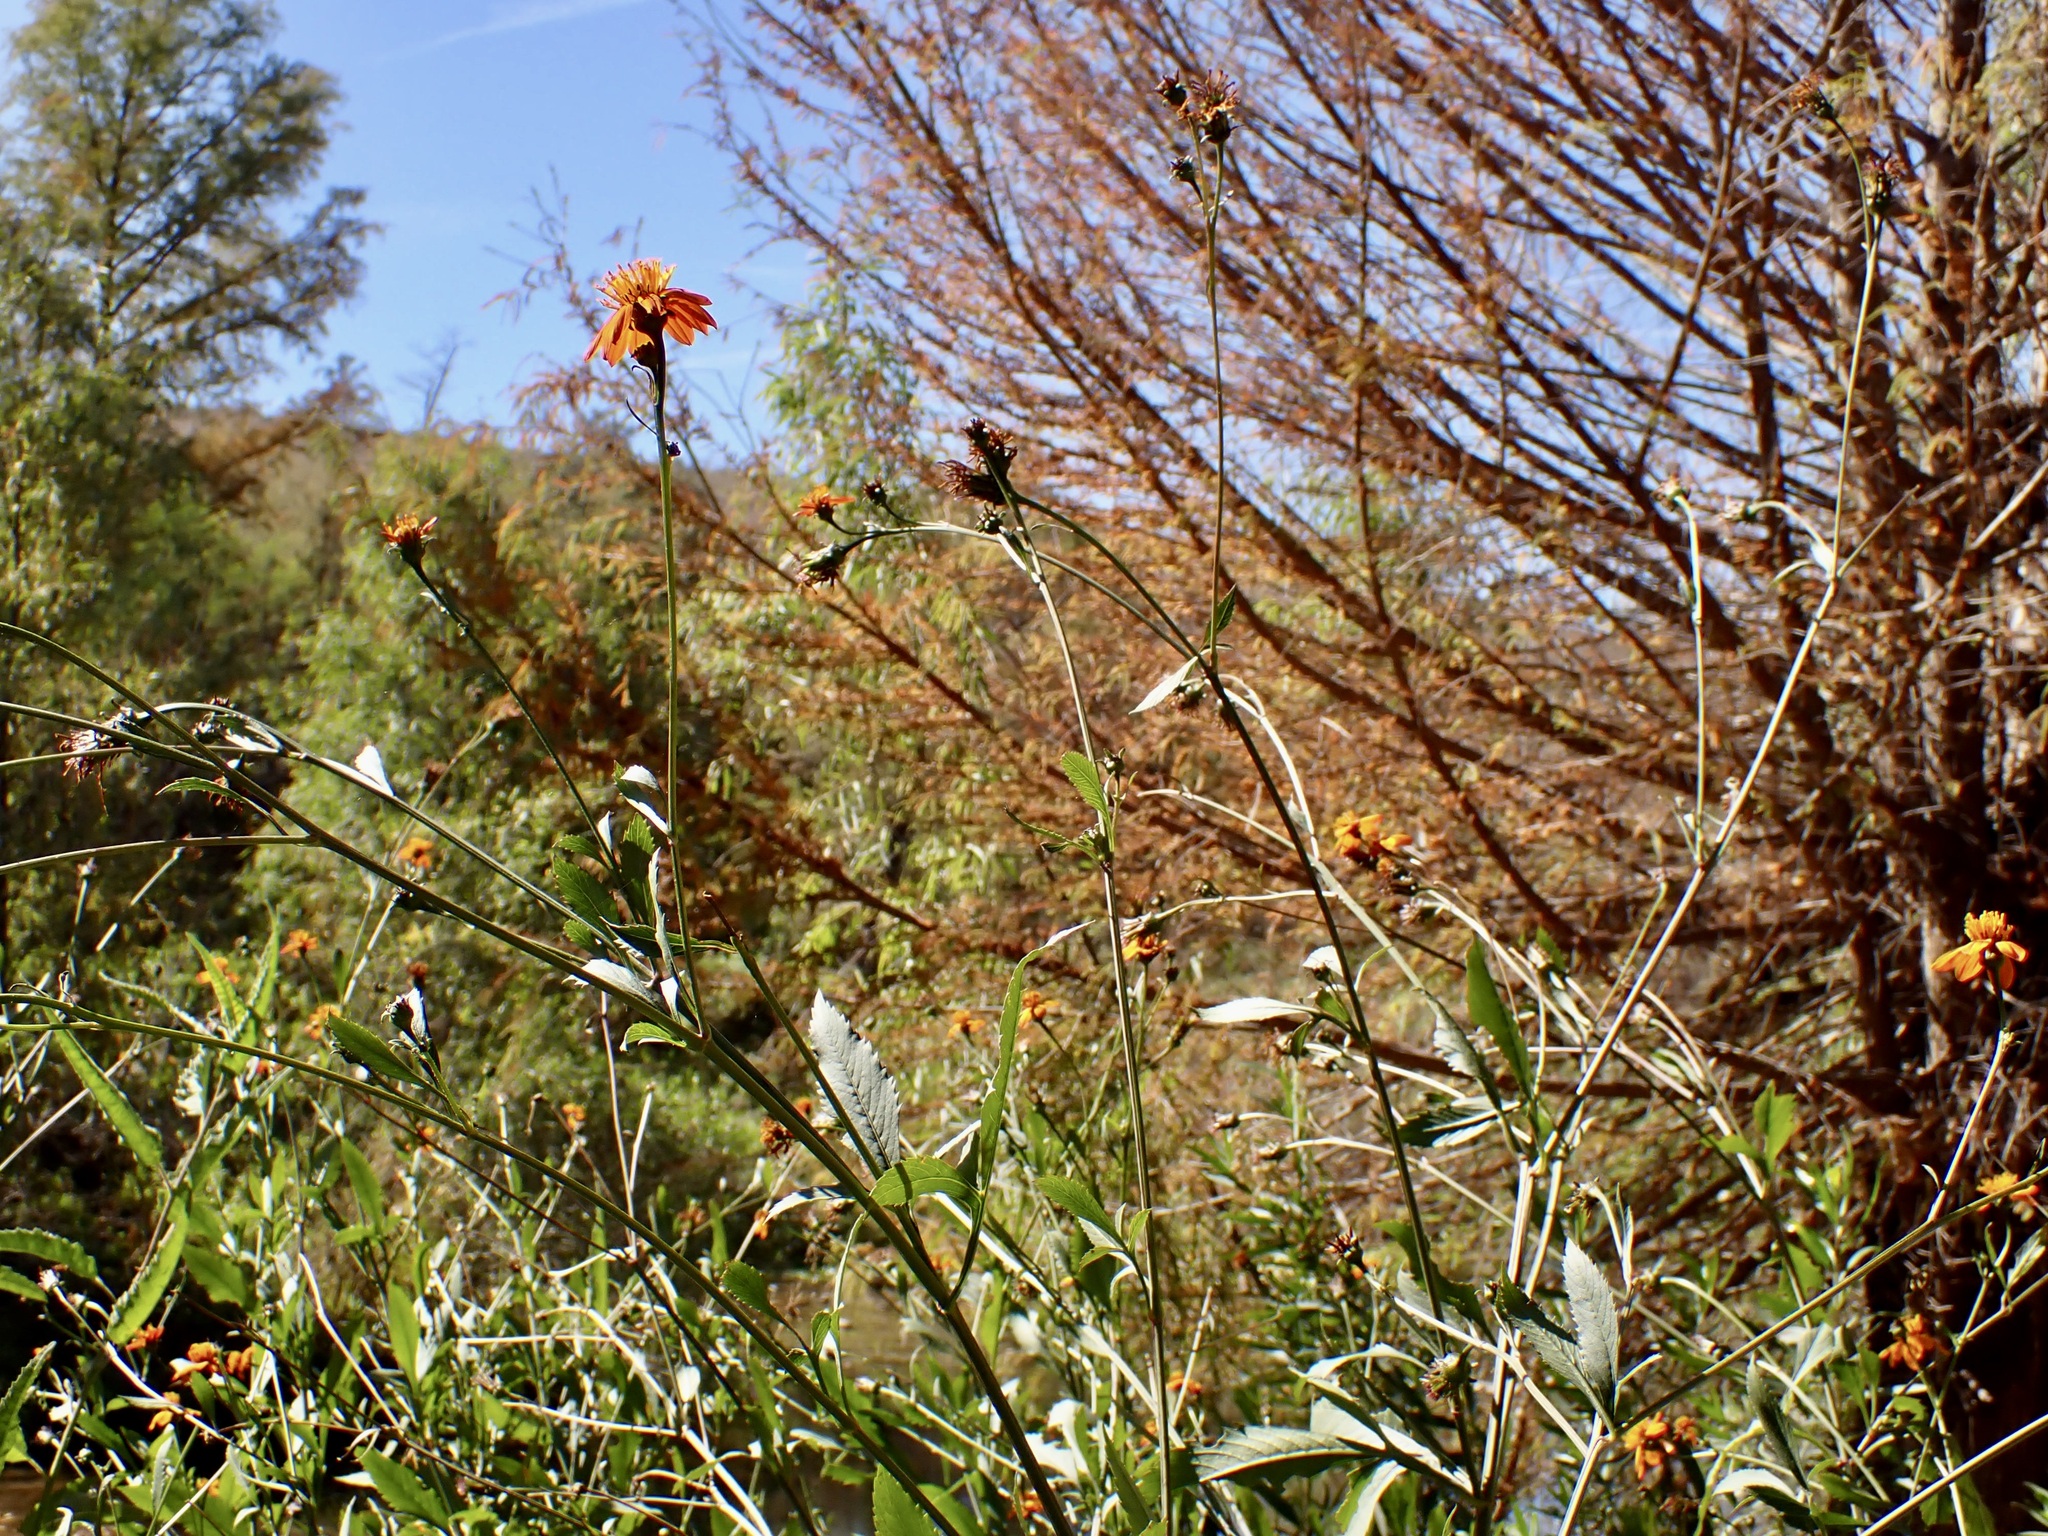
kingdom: Plantae
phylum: Tracheophyta
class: Magnoliopsida
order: Asterales
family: Asteraceae
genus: Bidens
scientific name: Bidens sambucifolia
